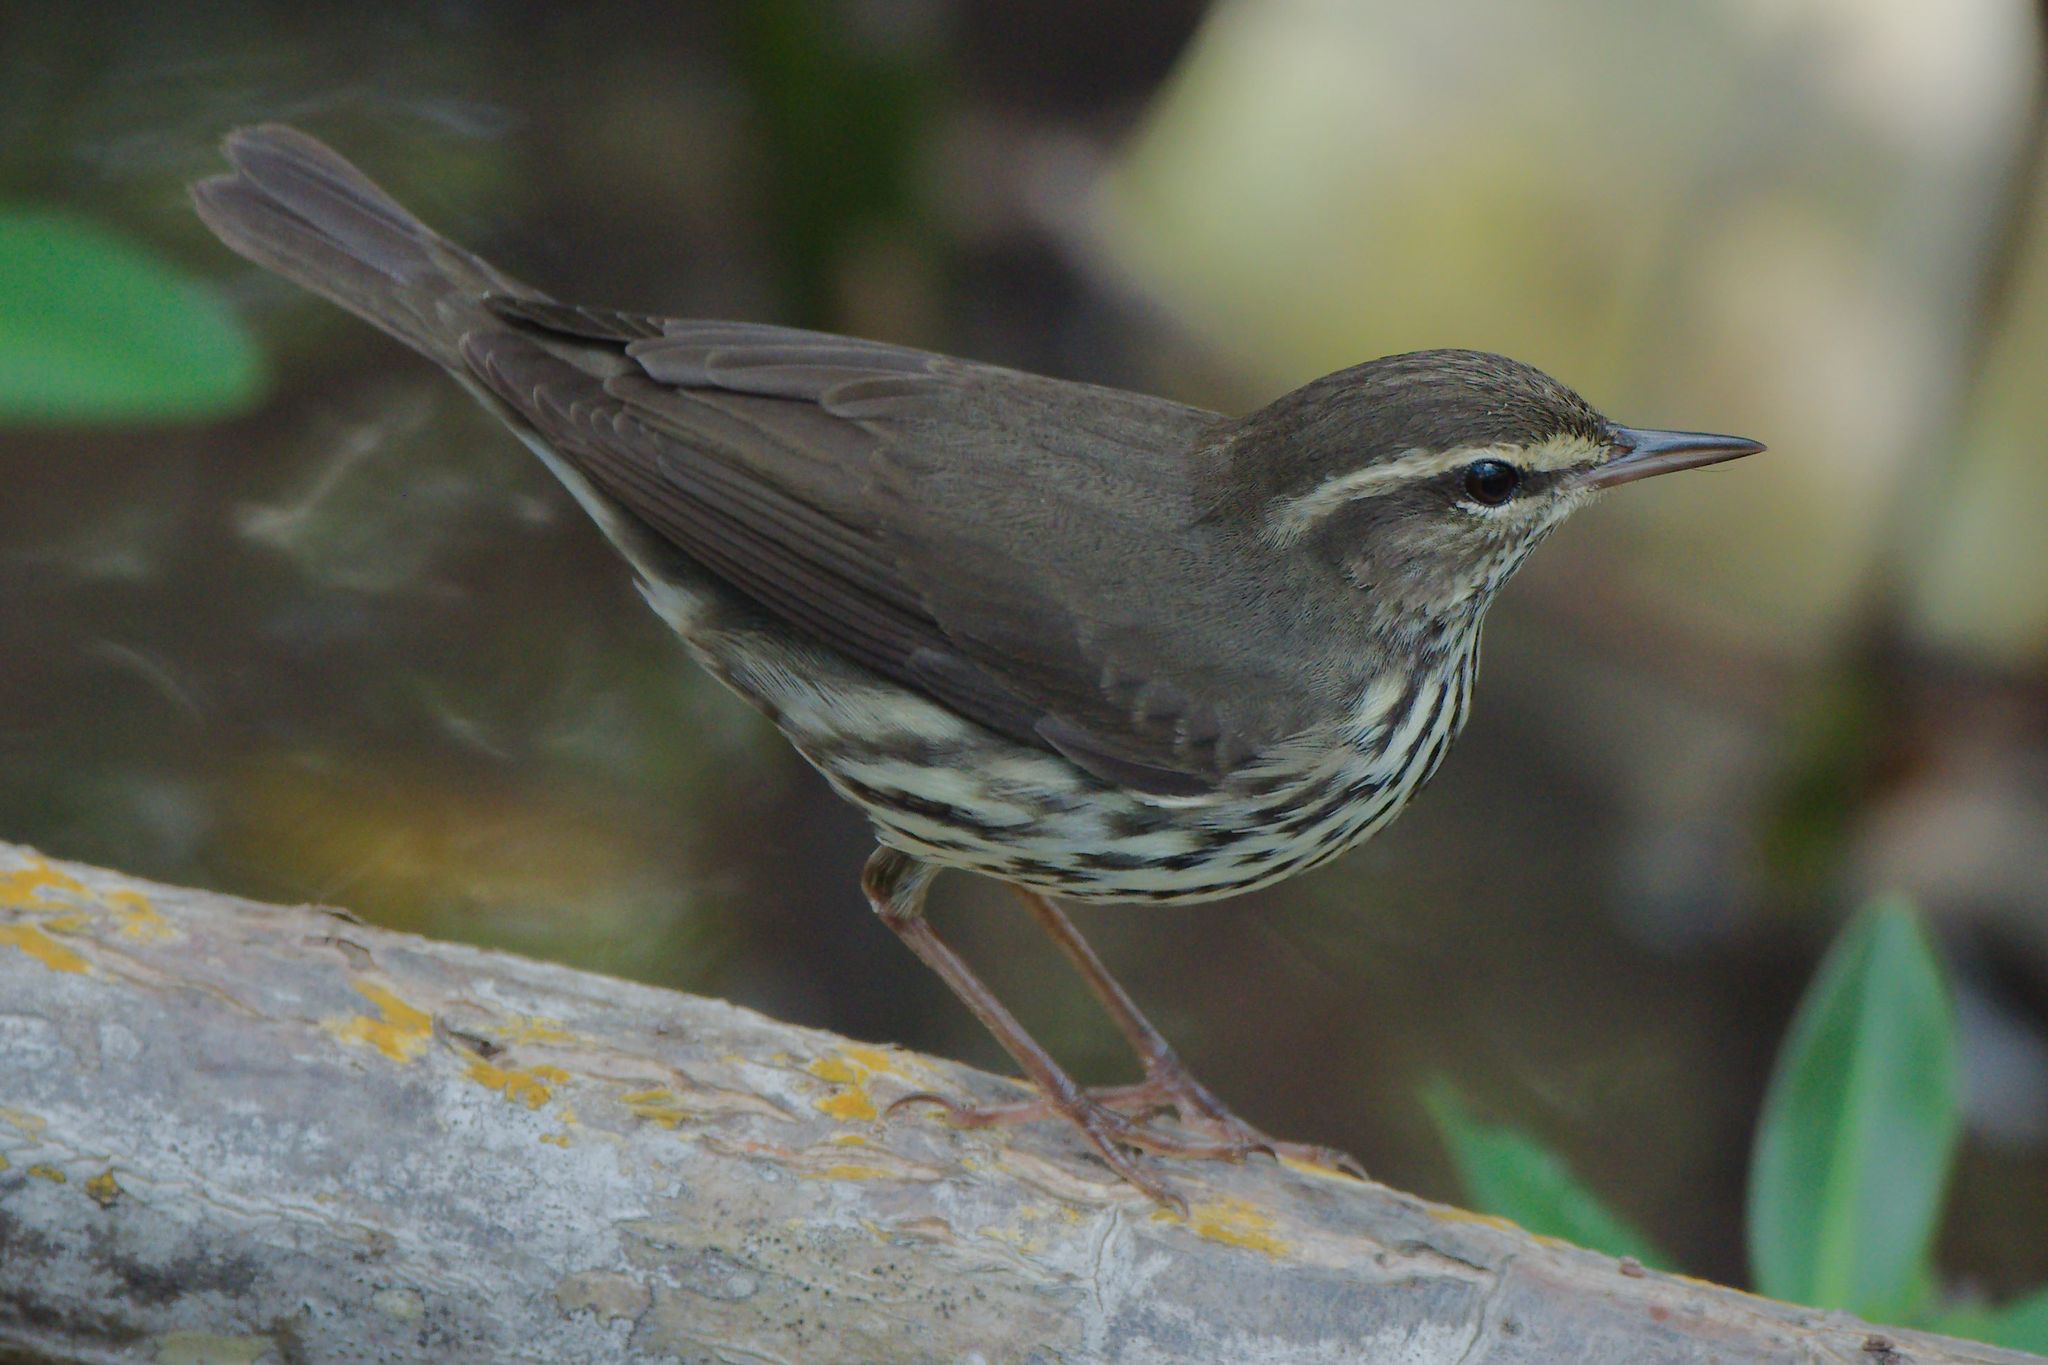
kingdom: Animalia
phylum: Chordata
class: Aves
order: Passeriformes
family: Parulidae
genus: Parkesia
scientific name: Parkesia noveboracensis
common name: Northern waterthrush
